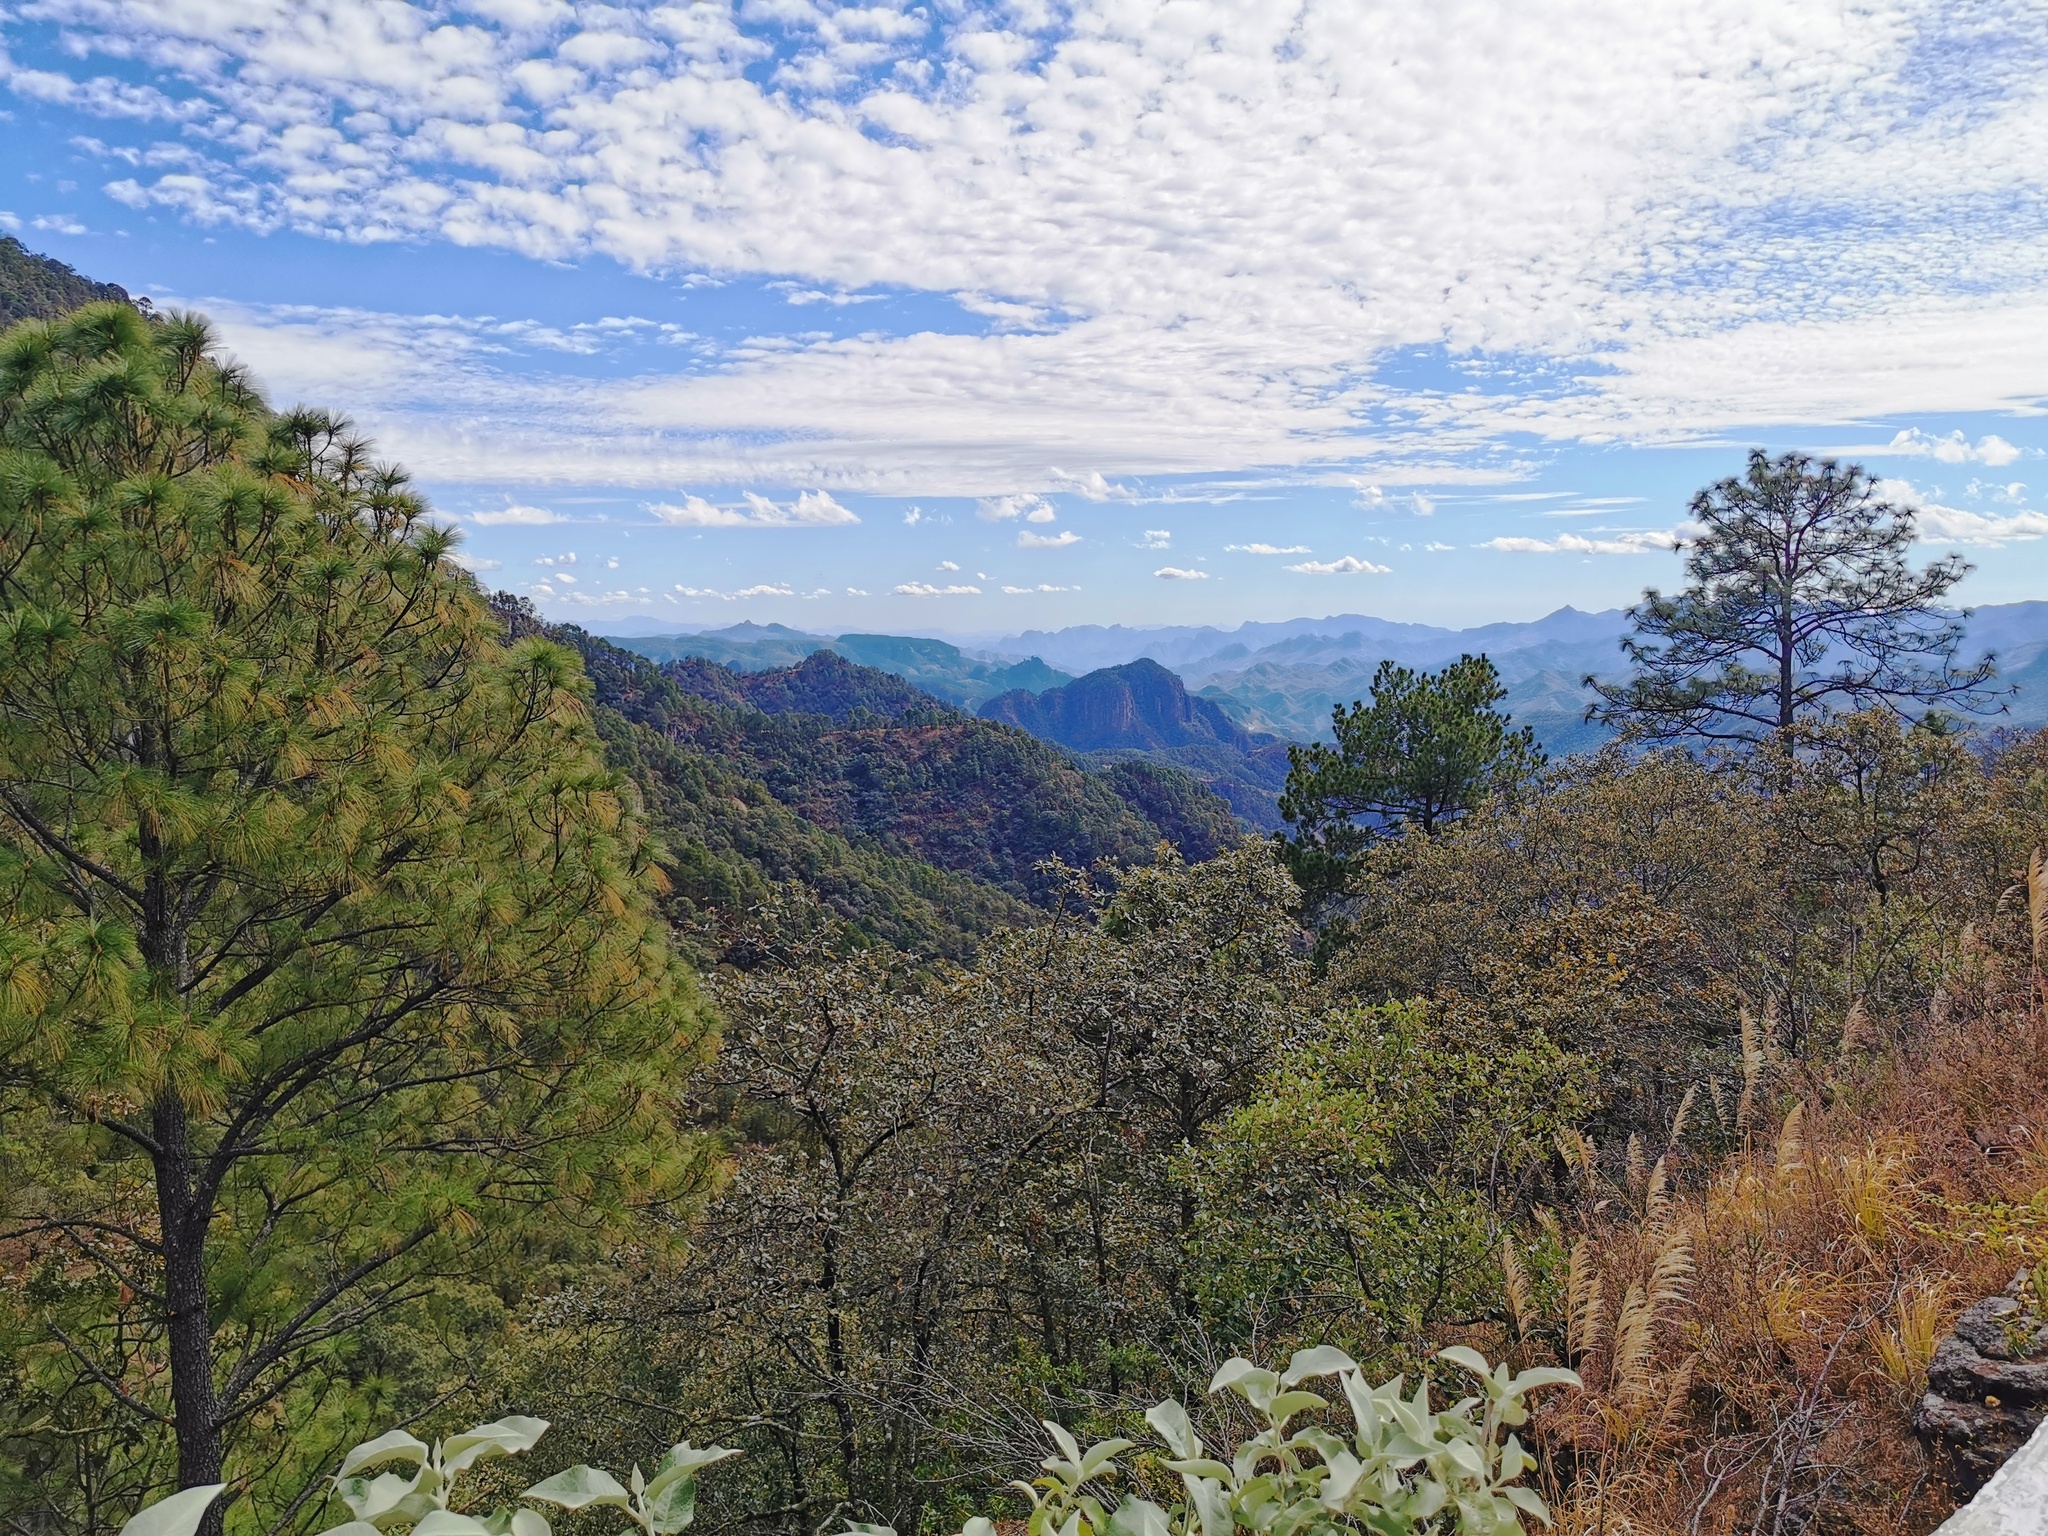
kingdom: Plantae
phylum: Tracheophyta
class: Pinopsida
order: Pinales
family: Pinaceae
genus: Pinus
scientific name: Pinus douglasiana
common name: Douglas pine
